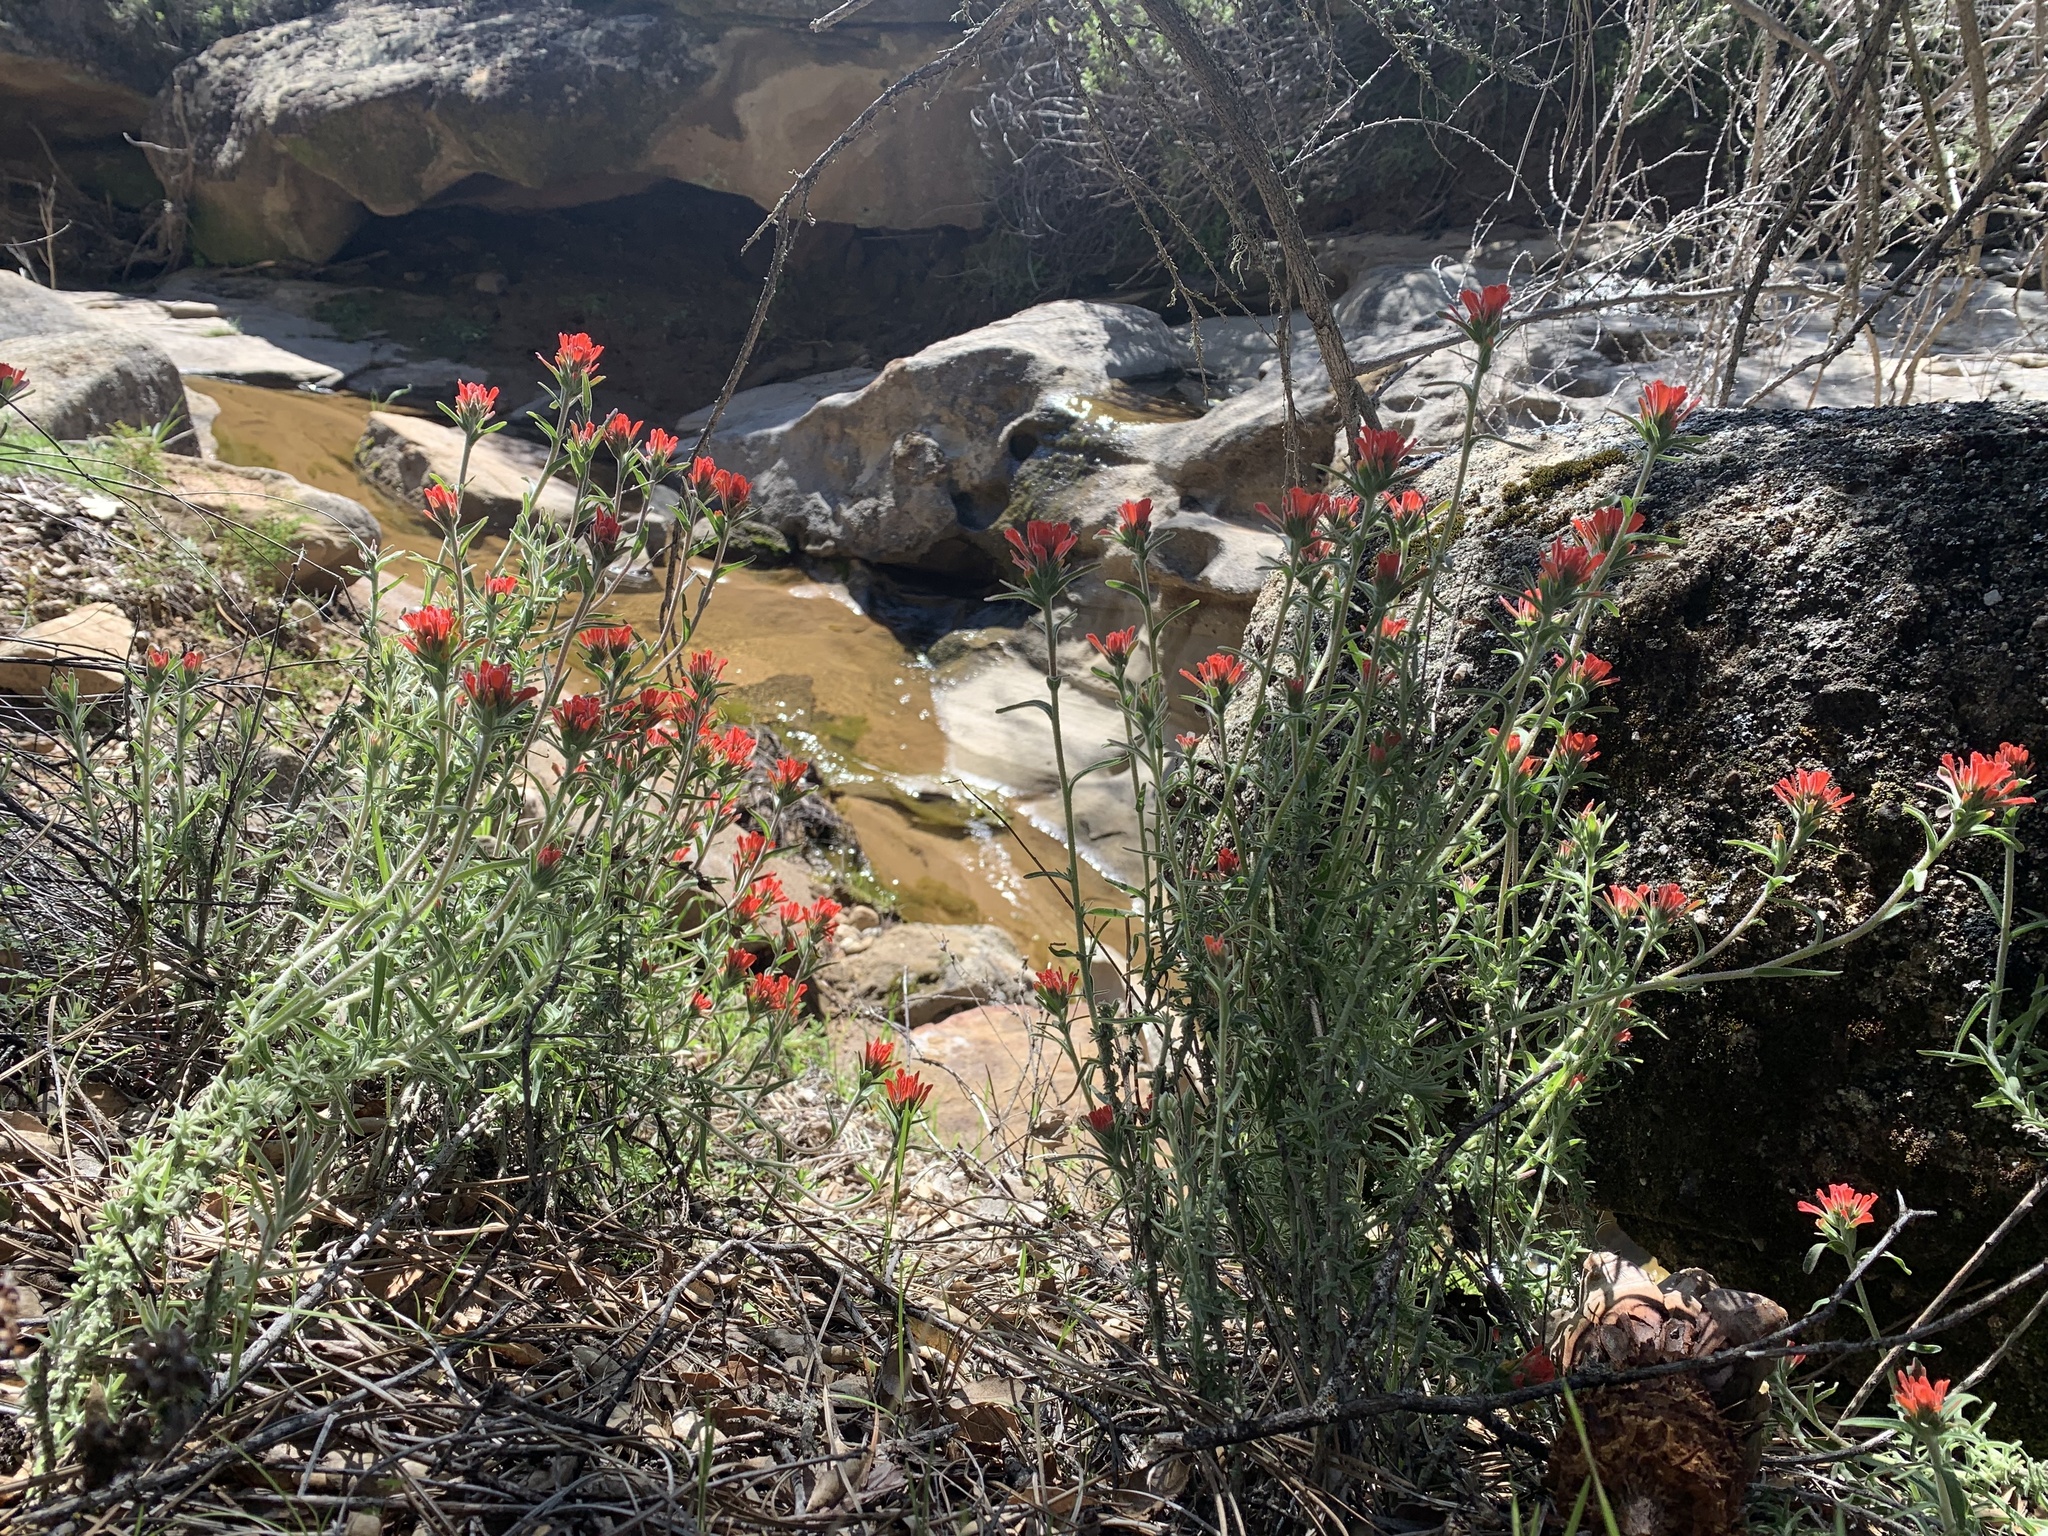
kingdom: Plantae
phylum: Tracheophyta
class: Magnoliopsida
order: Lamiales
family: Orobanchaceae
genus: Castilleja
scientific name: Castilleja foliolosa
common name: Woolly indian paintbrush
